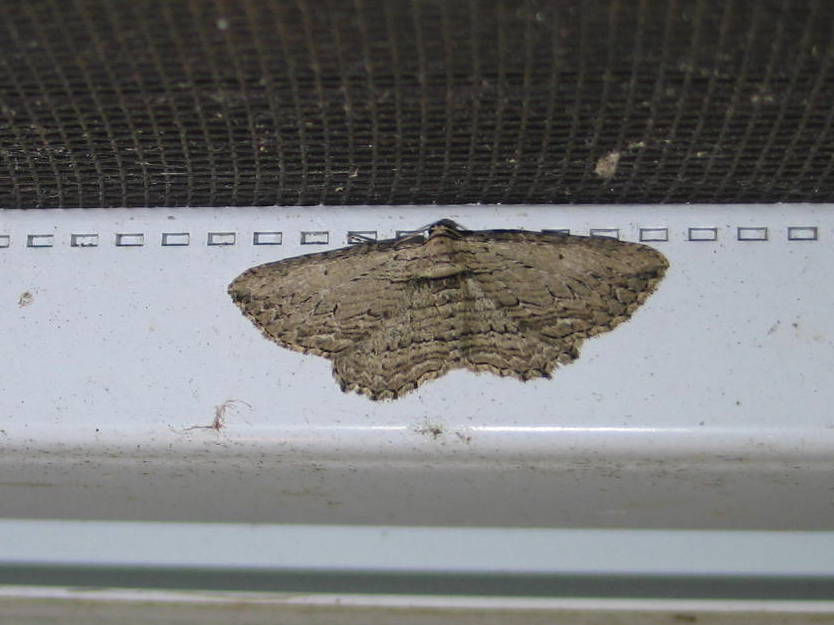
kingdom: Animalia
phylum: Arthropoda
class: Insecta
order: Lepidoptera
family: Geometridae
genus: Horisme
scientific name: Horisme intestinata
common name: Brown bark carpet
